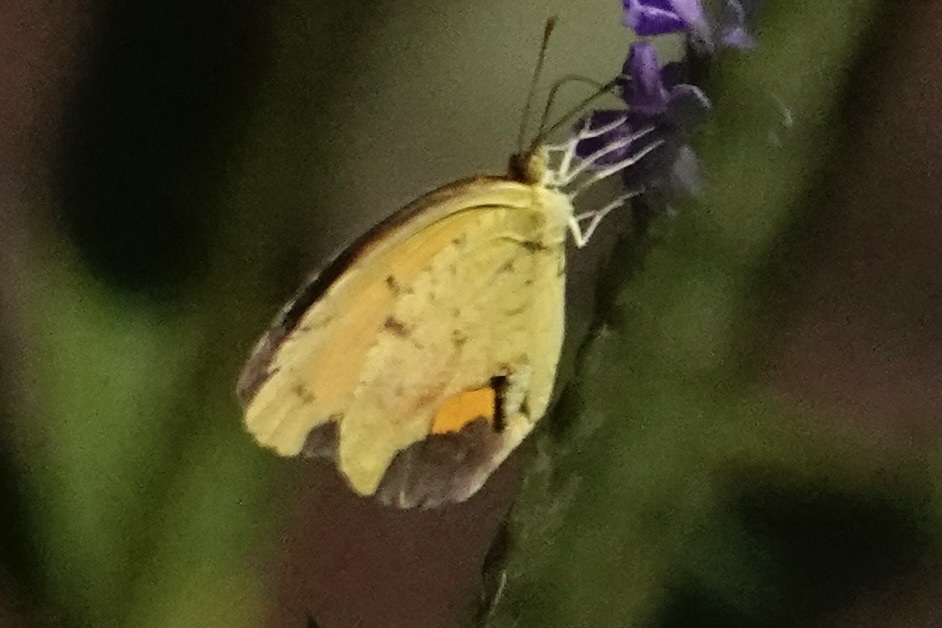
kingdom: Animalia
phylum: Arthropoda
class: Insecta
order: Lepidoptera
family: Pieridae
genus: Abaeis
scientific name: Abaeis nicippe
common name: Sleepy orange
